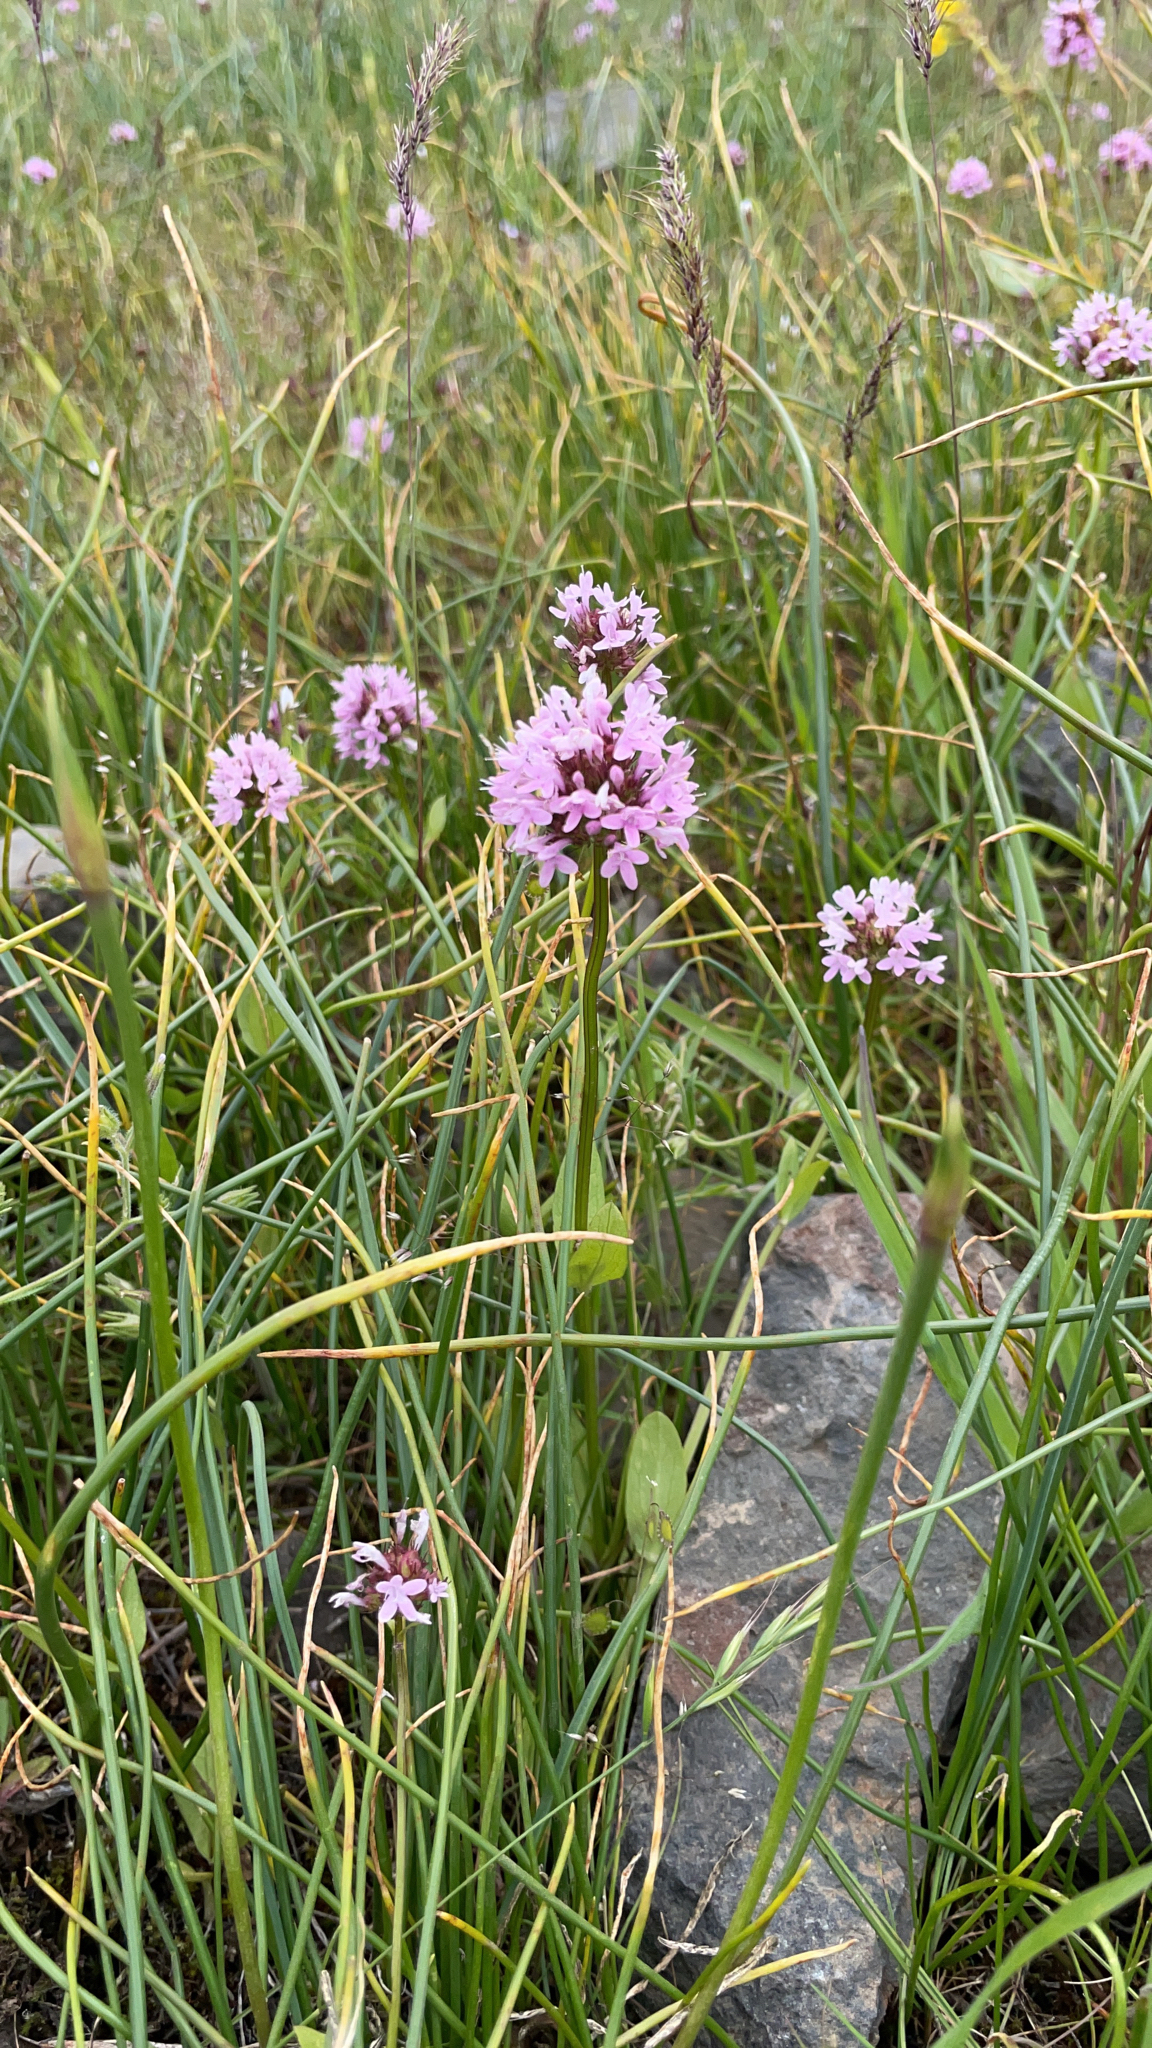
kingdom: Plantae
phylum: Tracheophyta
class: Magnoliopsida
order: Dipsacales
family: Caprifoliaceae
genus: Plectritis
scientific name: Plectritis congesta
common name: Pink plectritis
